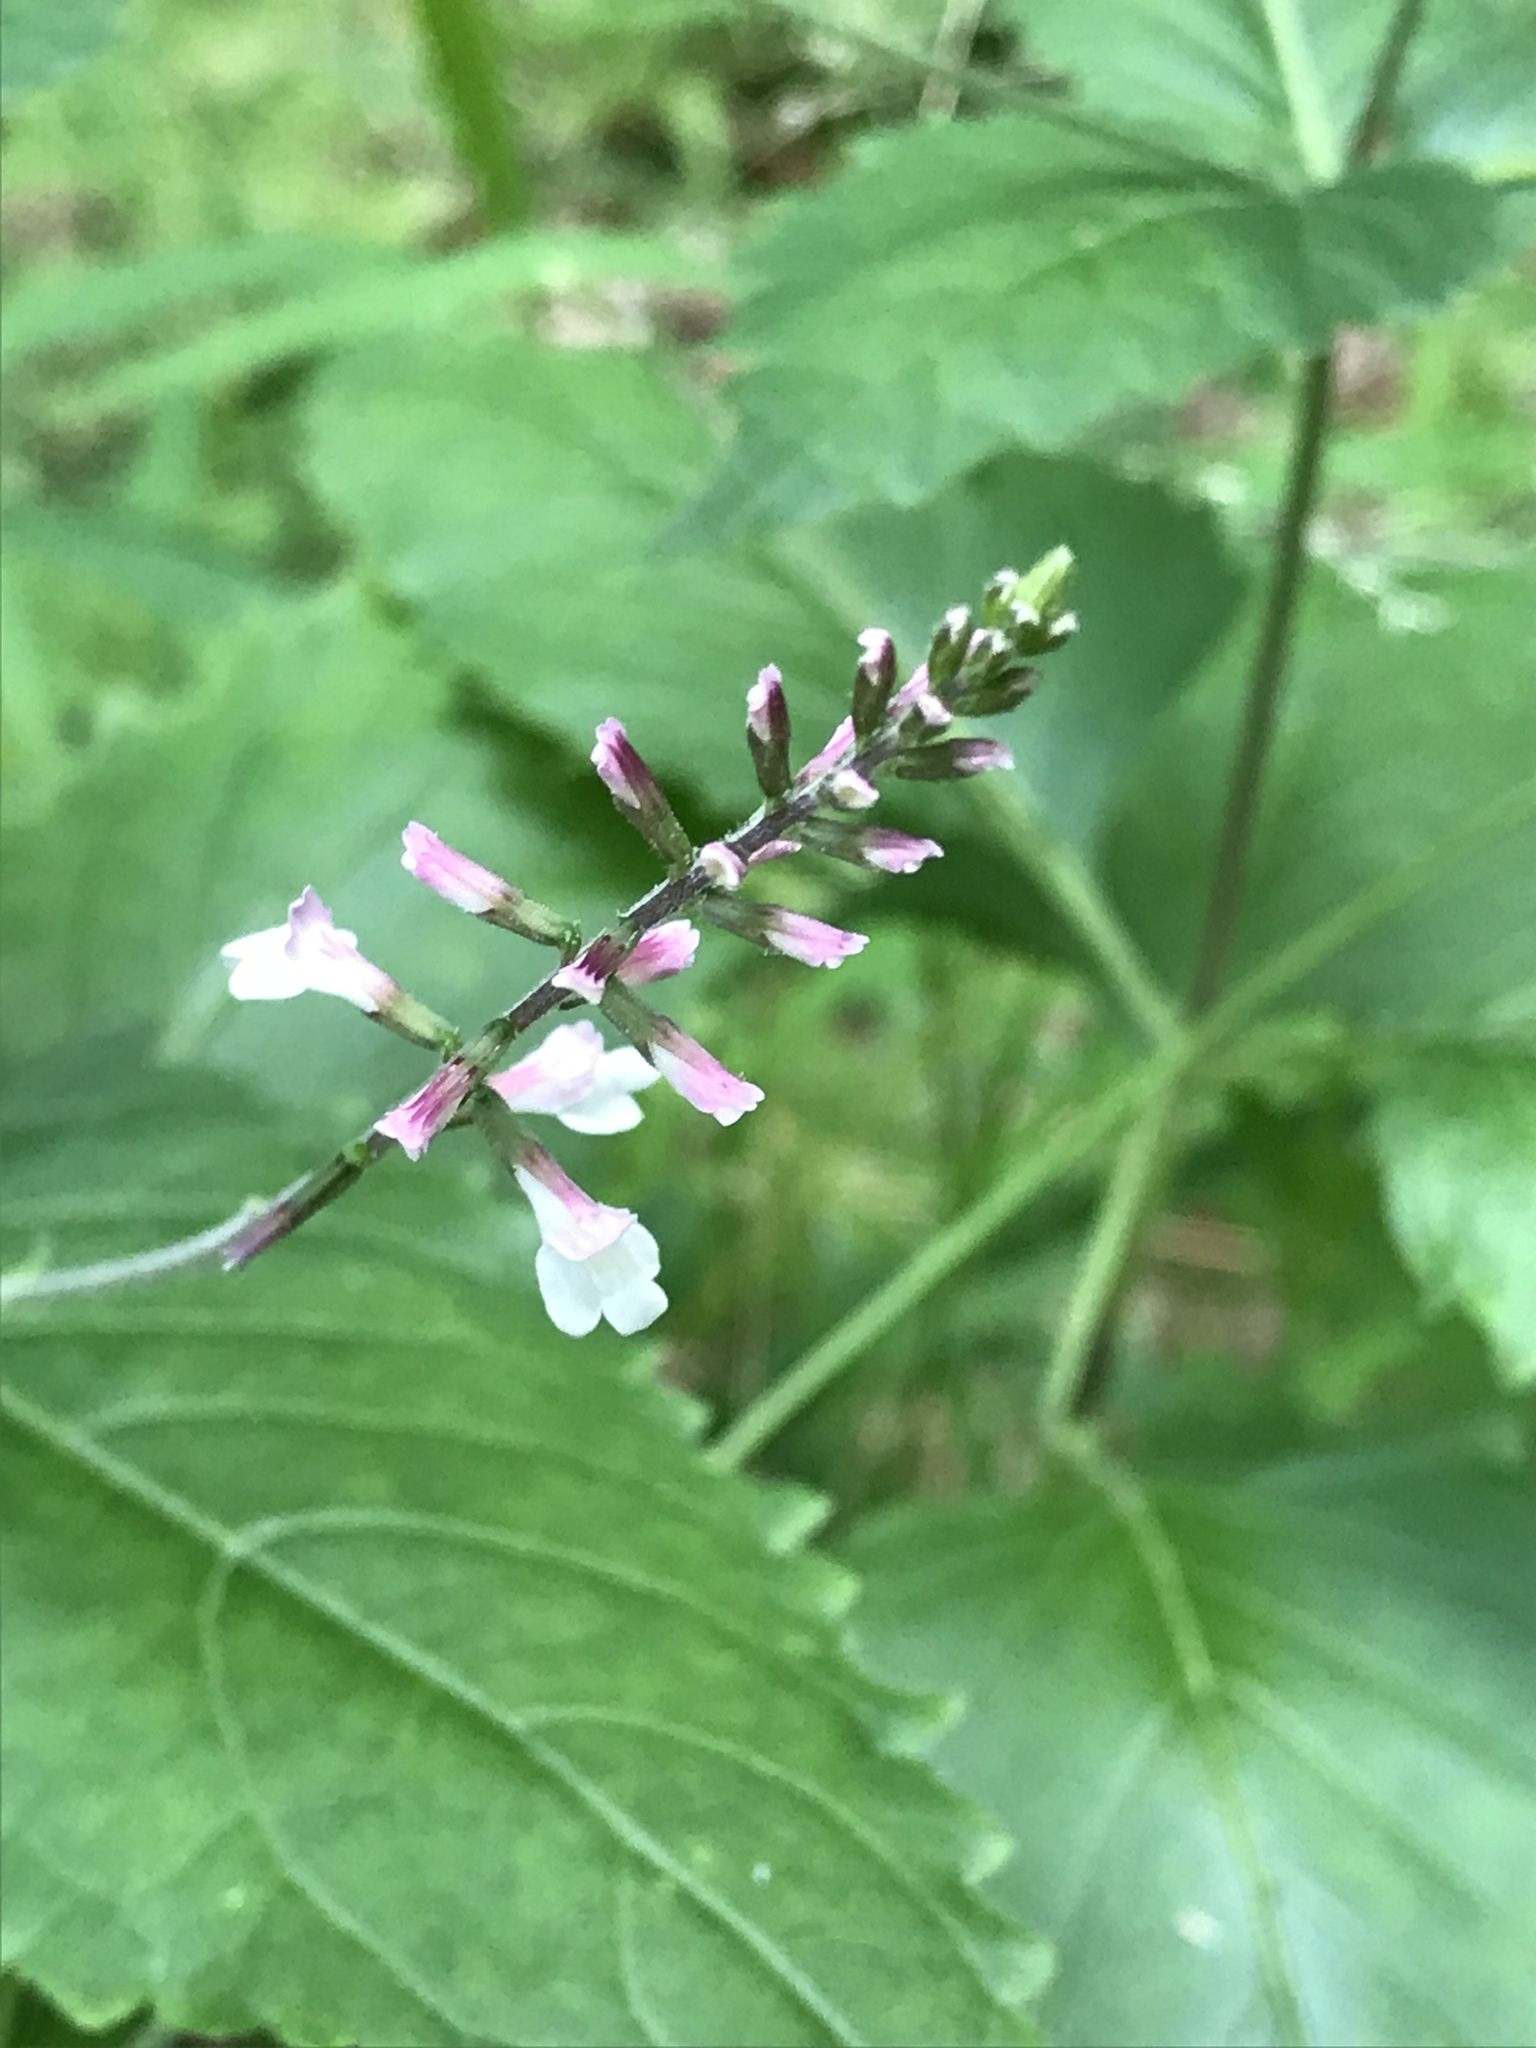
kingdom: Plantae
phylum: Tracheophyta
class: Magnoliopsida
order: Lamiales
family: Phrymaceae
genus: Phryma
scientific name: Phryma leptostachya
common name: American lopseed
